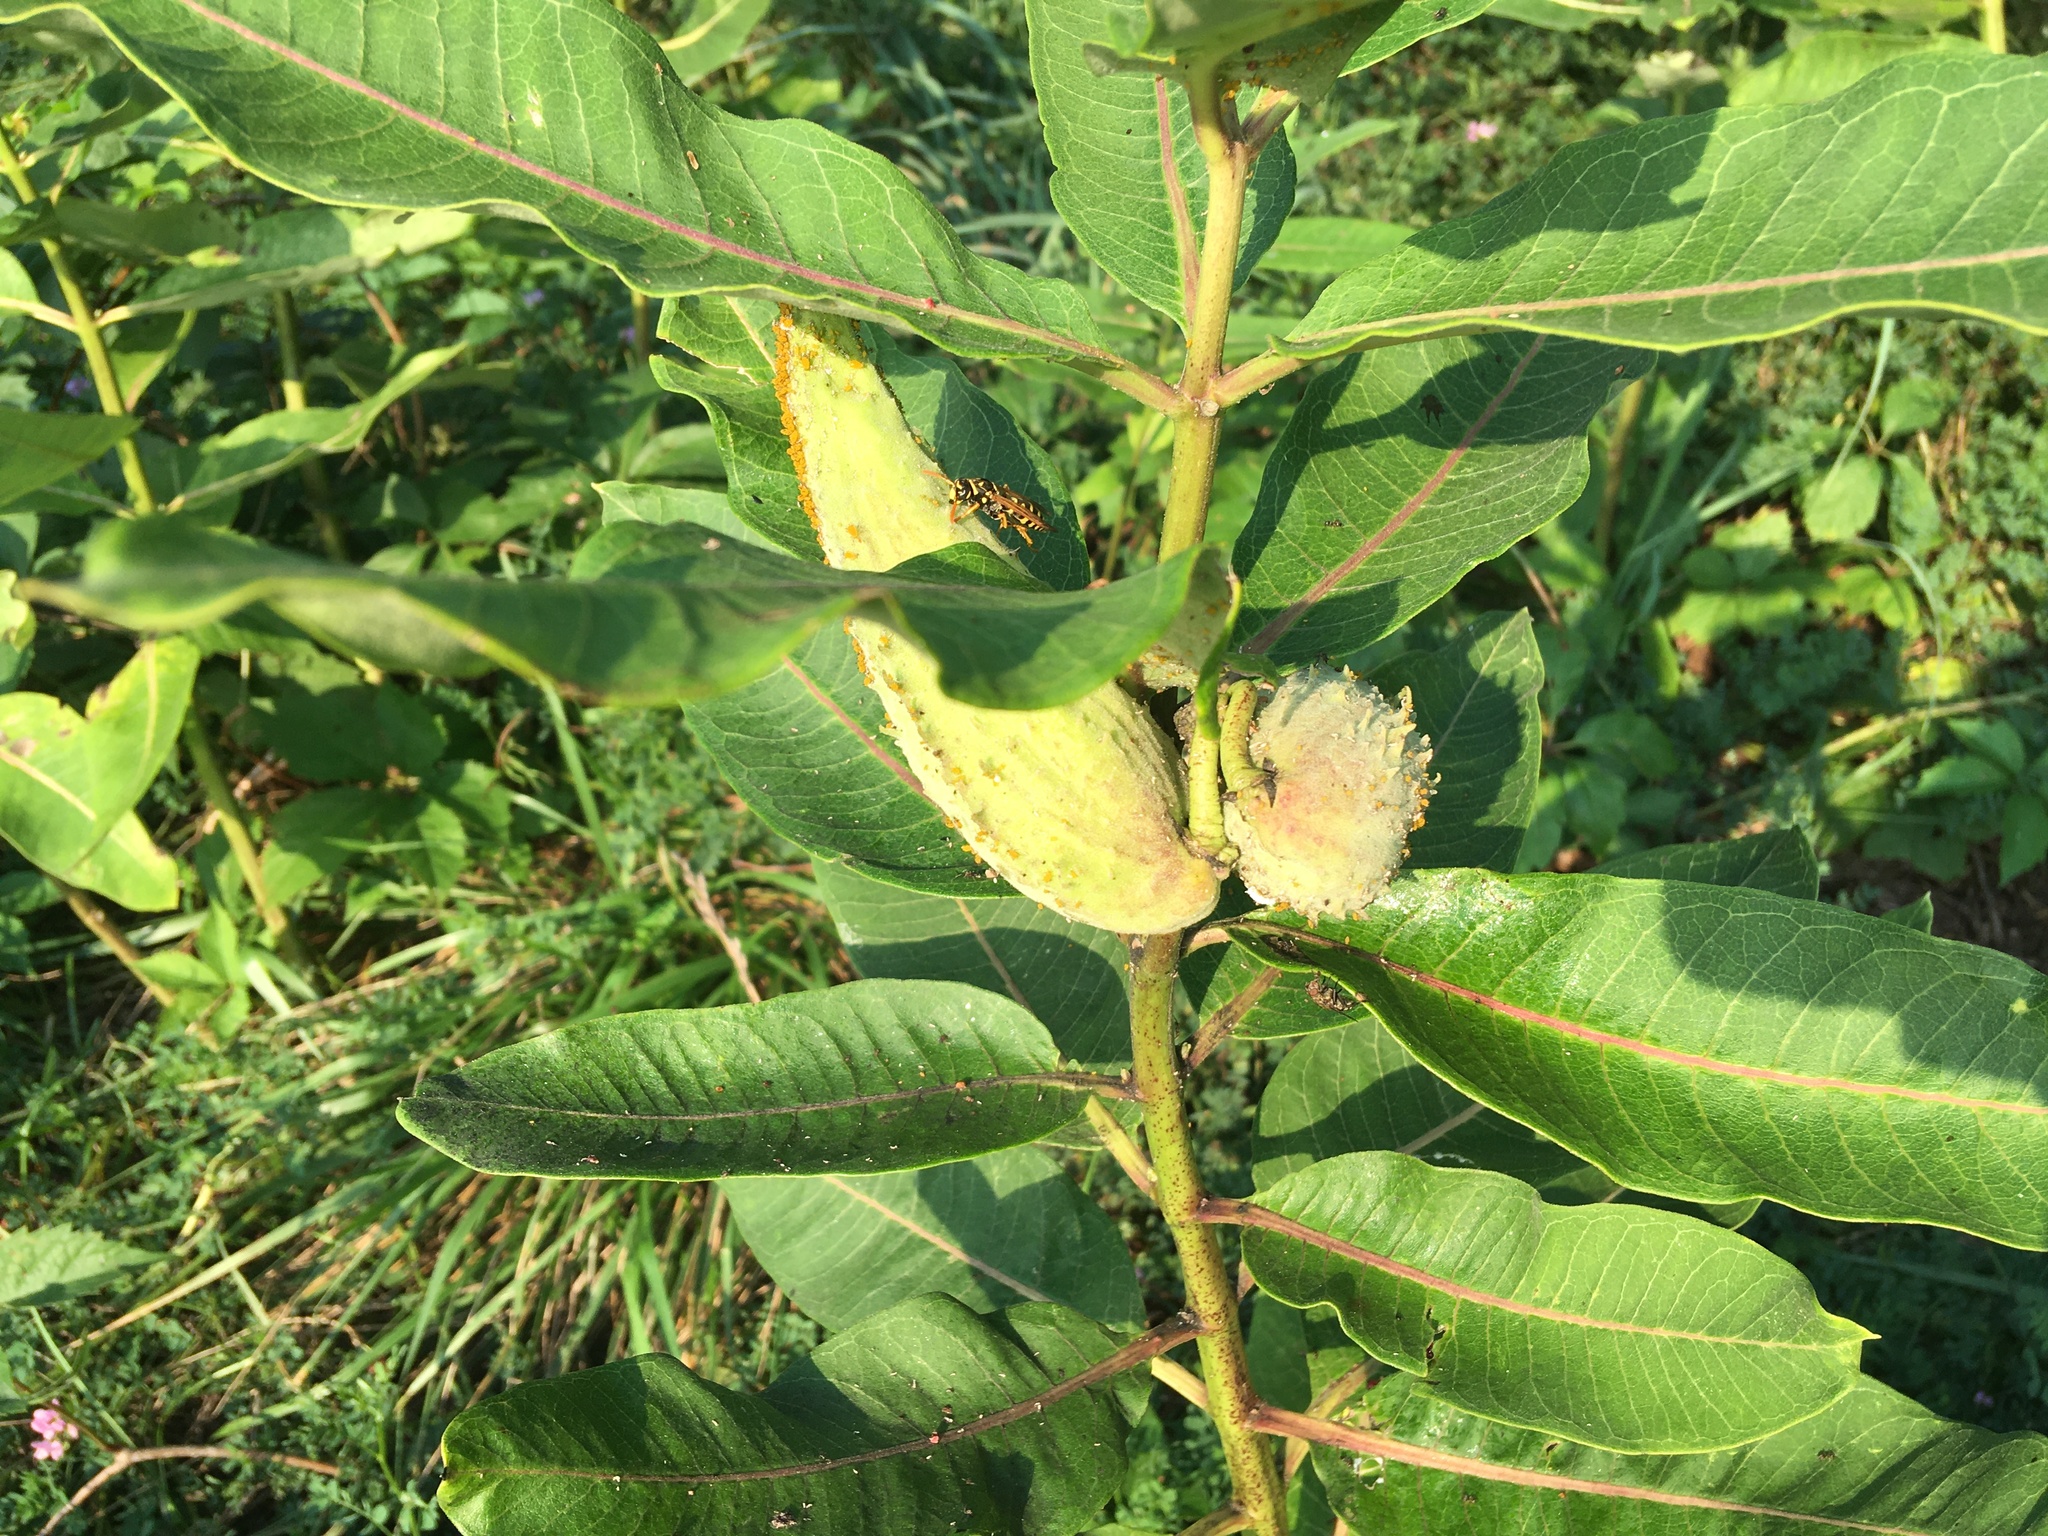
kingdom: Plantae
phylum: Tracheophyta
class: Magnoliopsida
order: Gentianales
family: Apocynaceae
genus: Asclepias
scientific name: Asclepias syriaca
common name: Common milkweed
